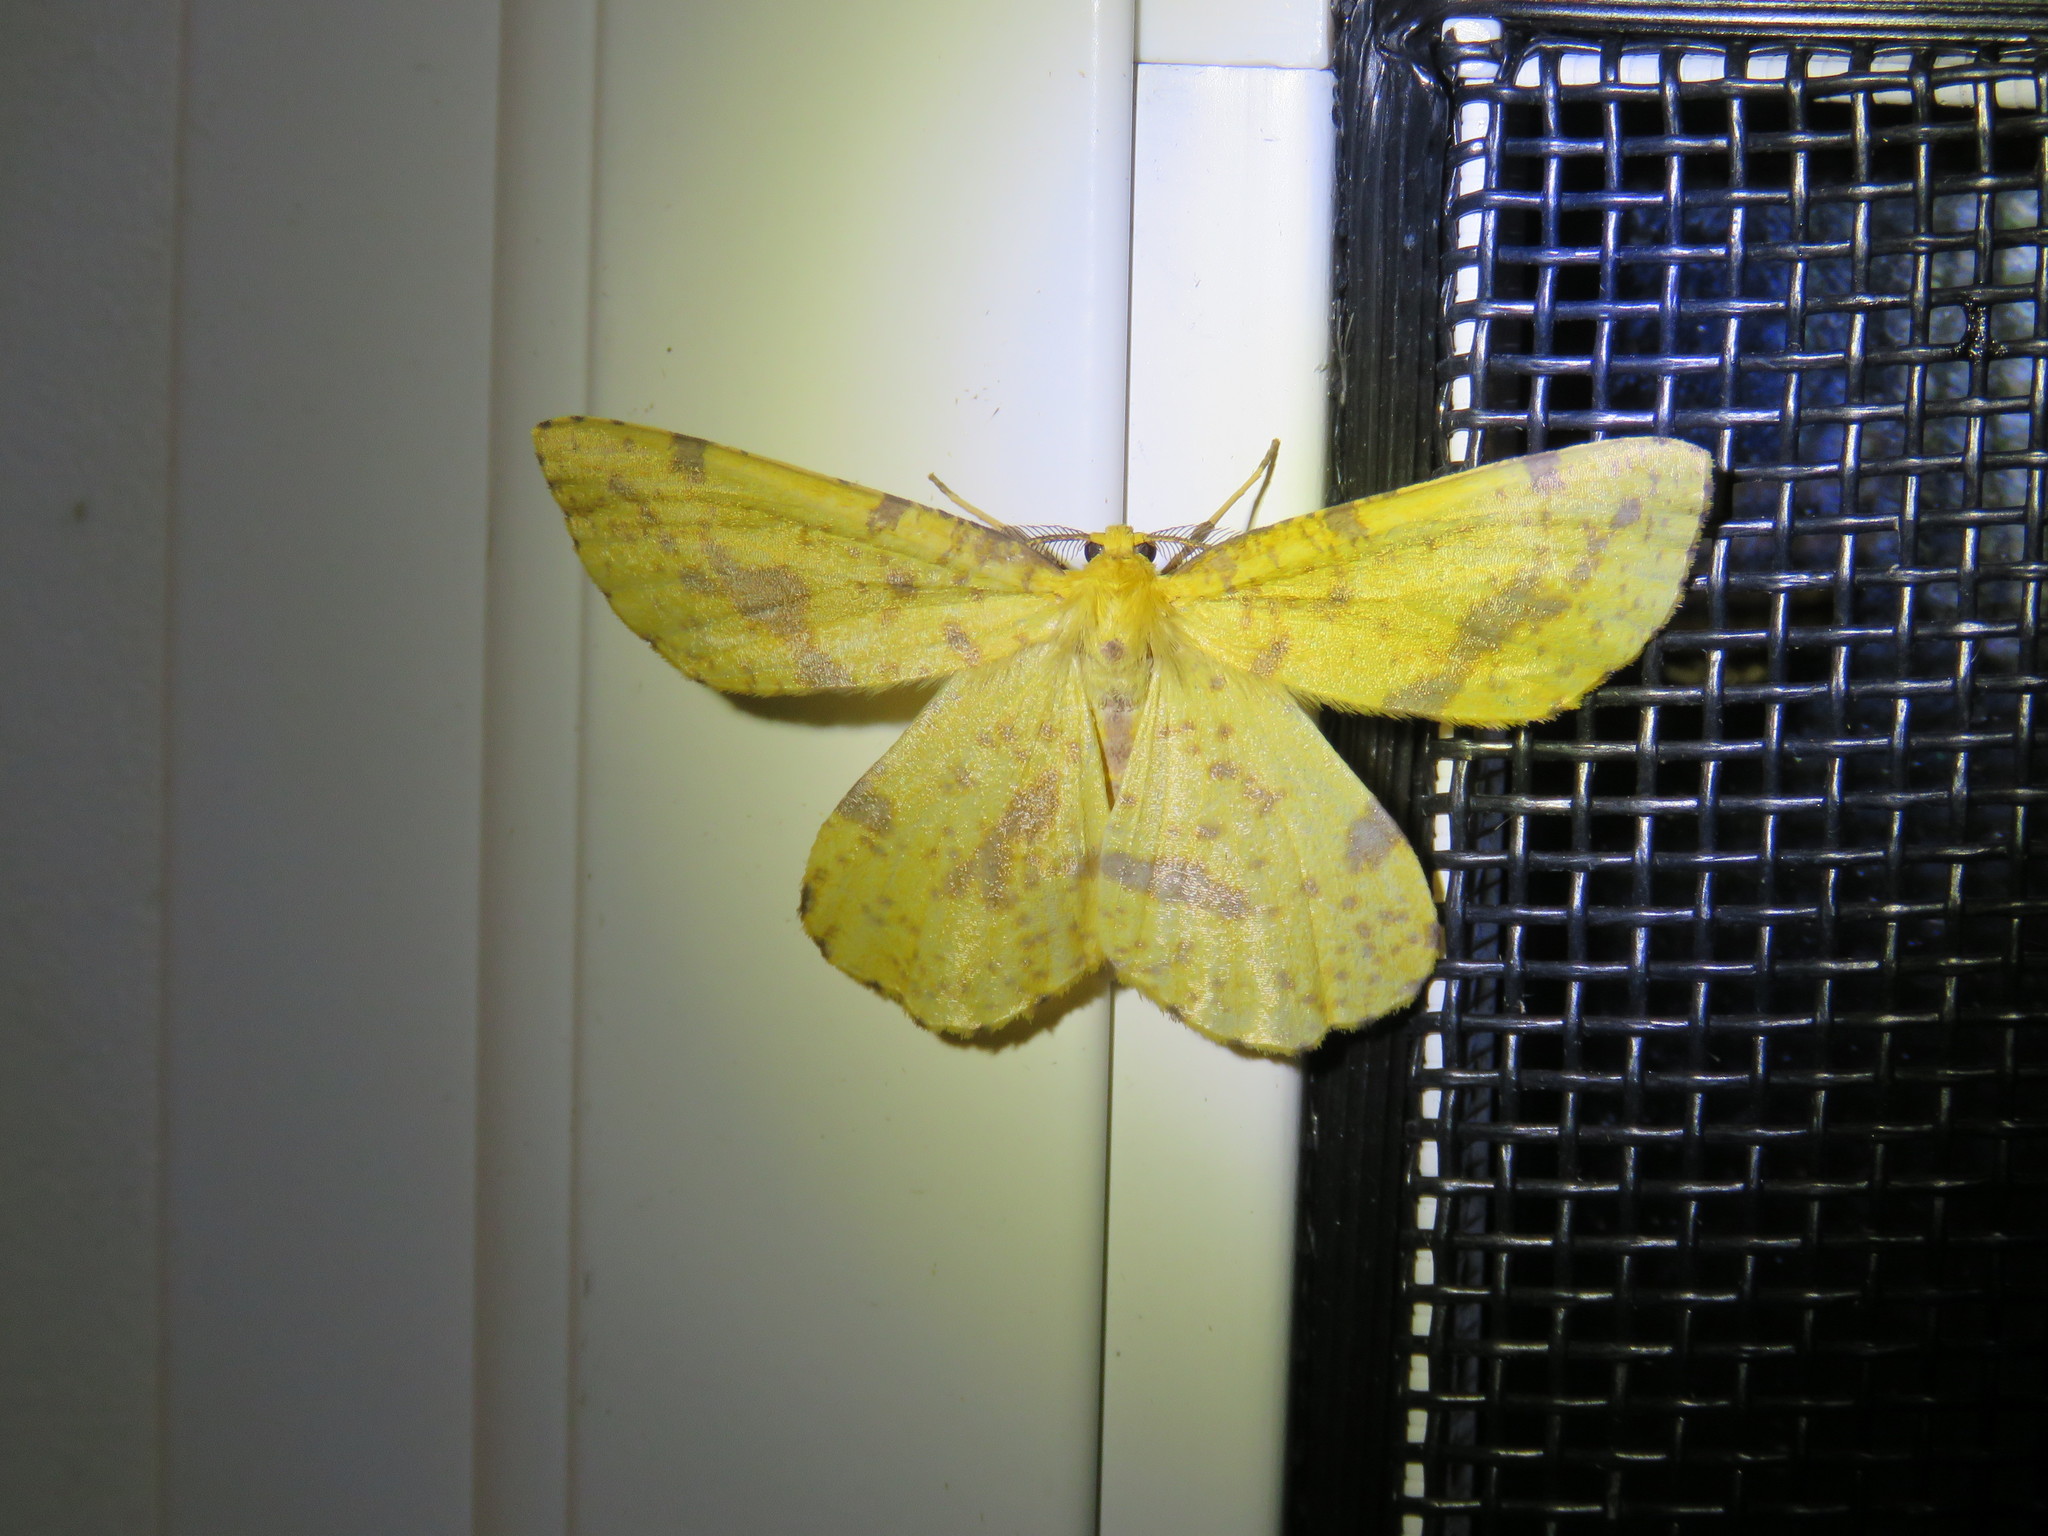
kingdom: Animalia
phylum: Arthropoda
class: Insecta
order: Lepidoptera
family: Geometridae
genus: Xanthotype
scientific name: Xanthotype
